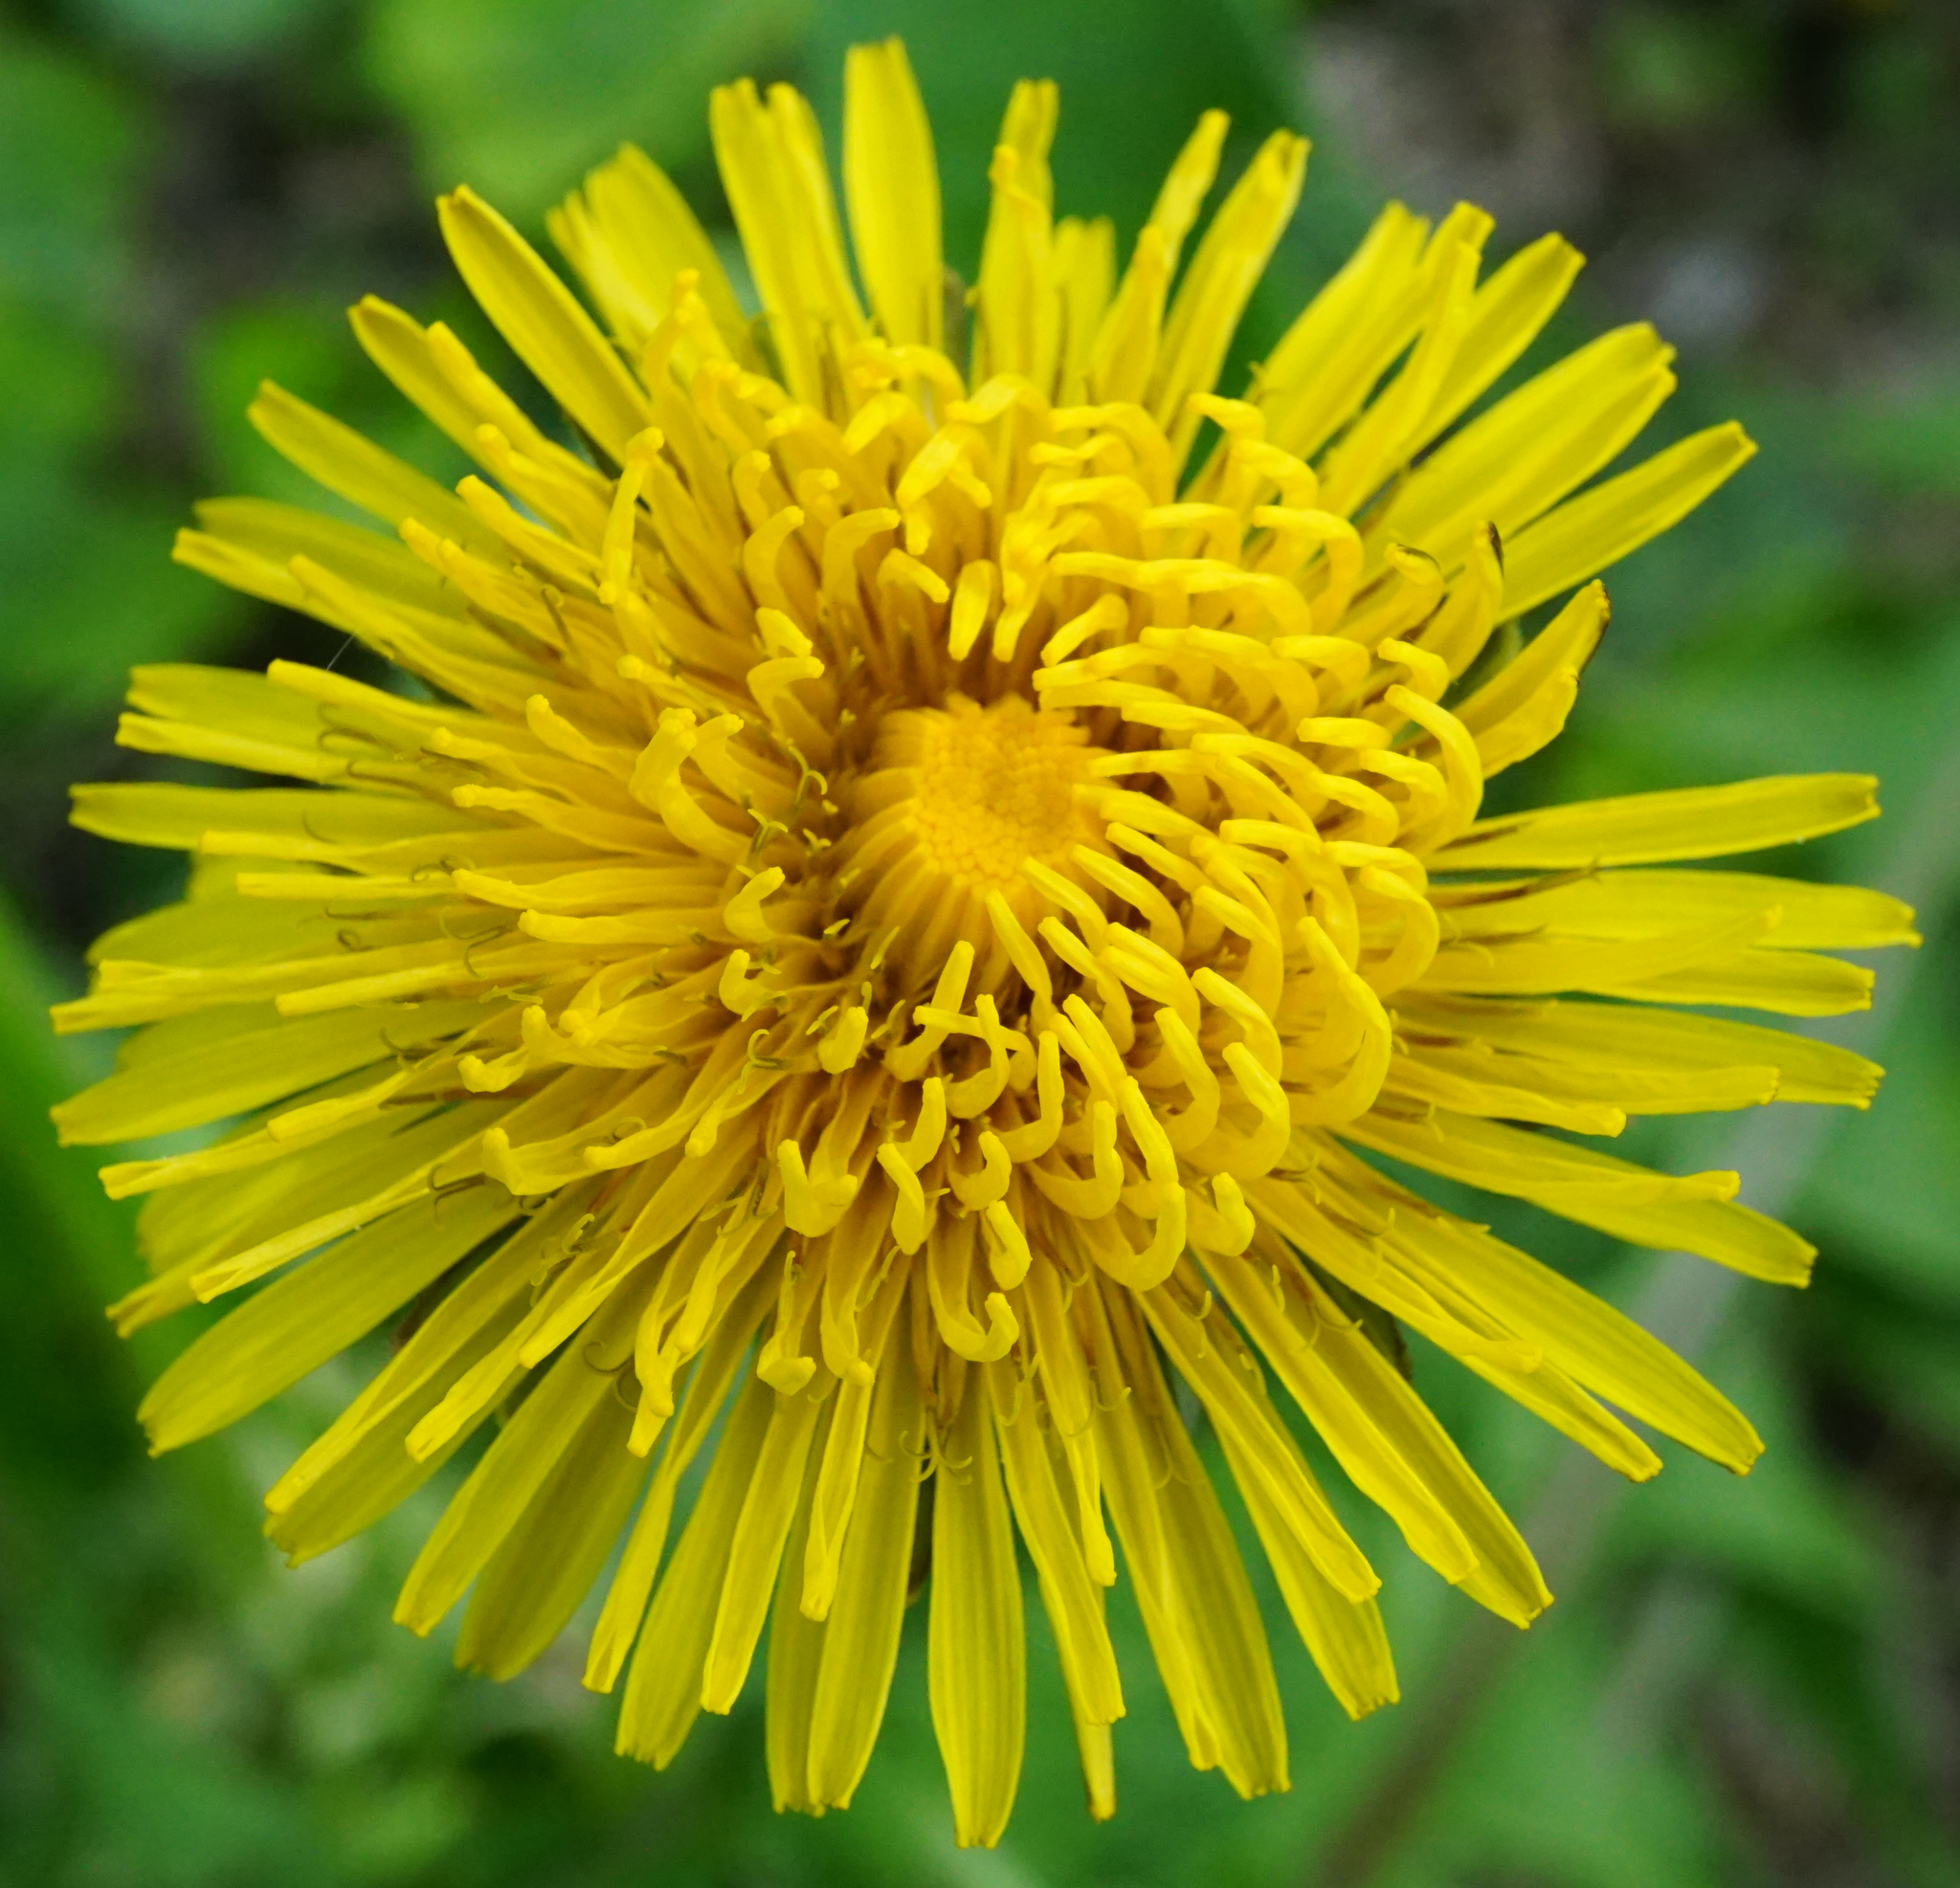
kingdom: Plantae
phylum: Tracheophyta
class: Magnoliopsida
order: Asterales
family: Asteraceae
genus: Taraxacum
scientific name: Taraxacum
